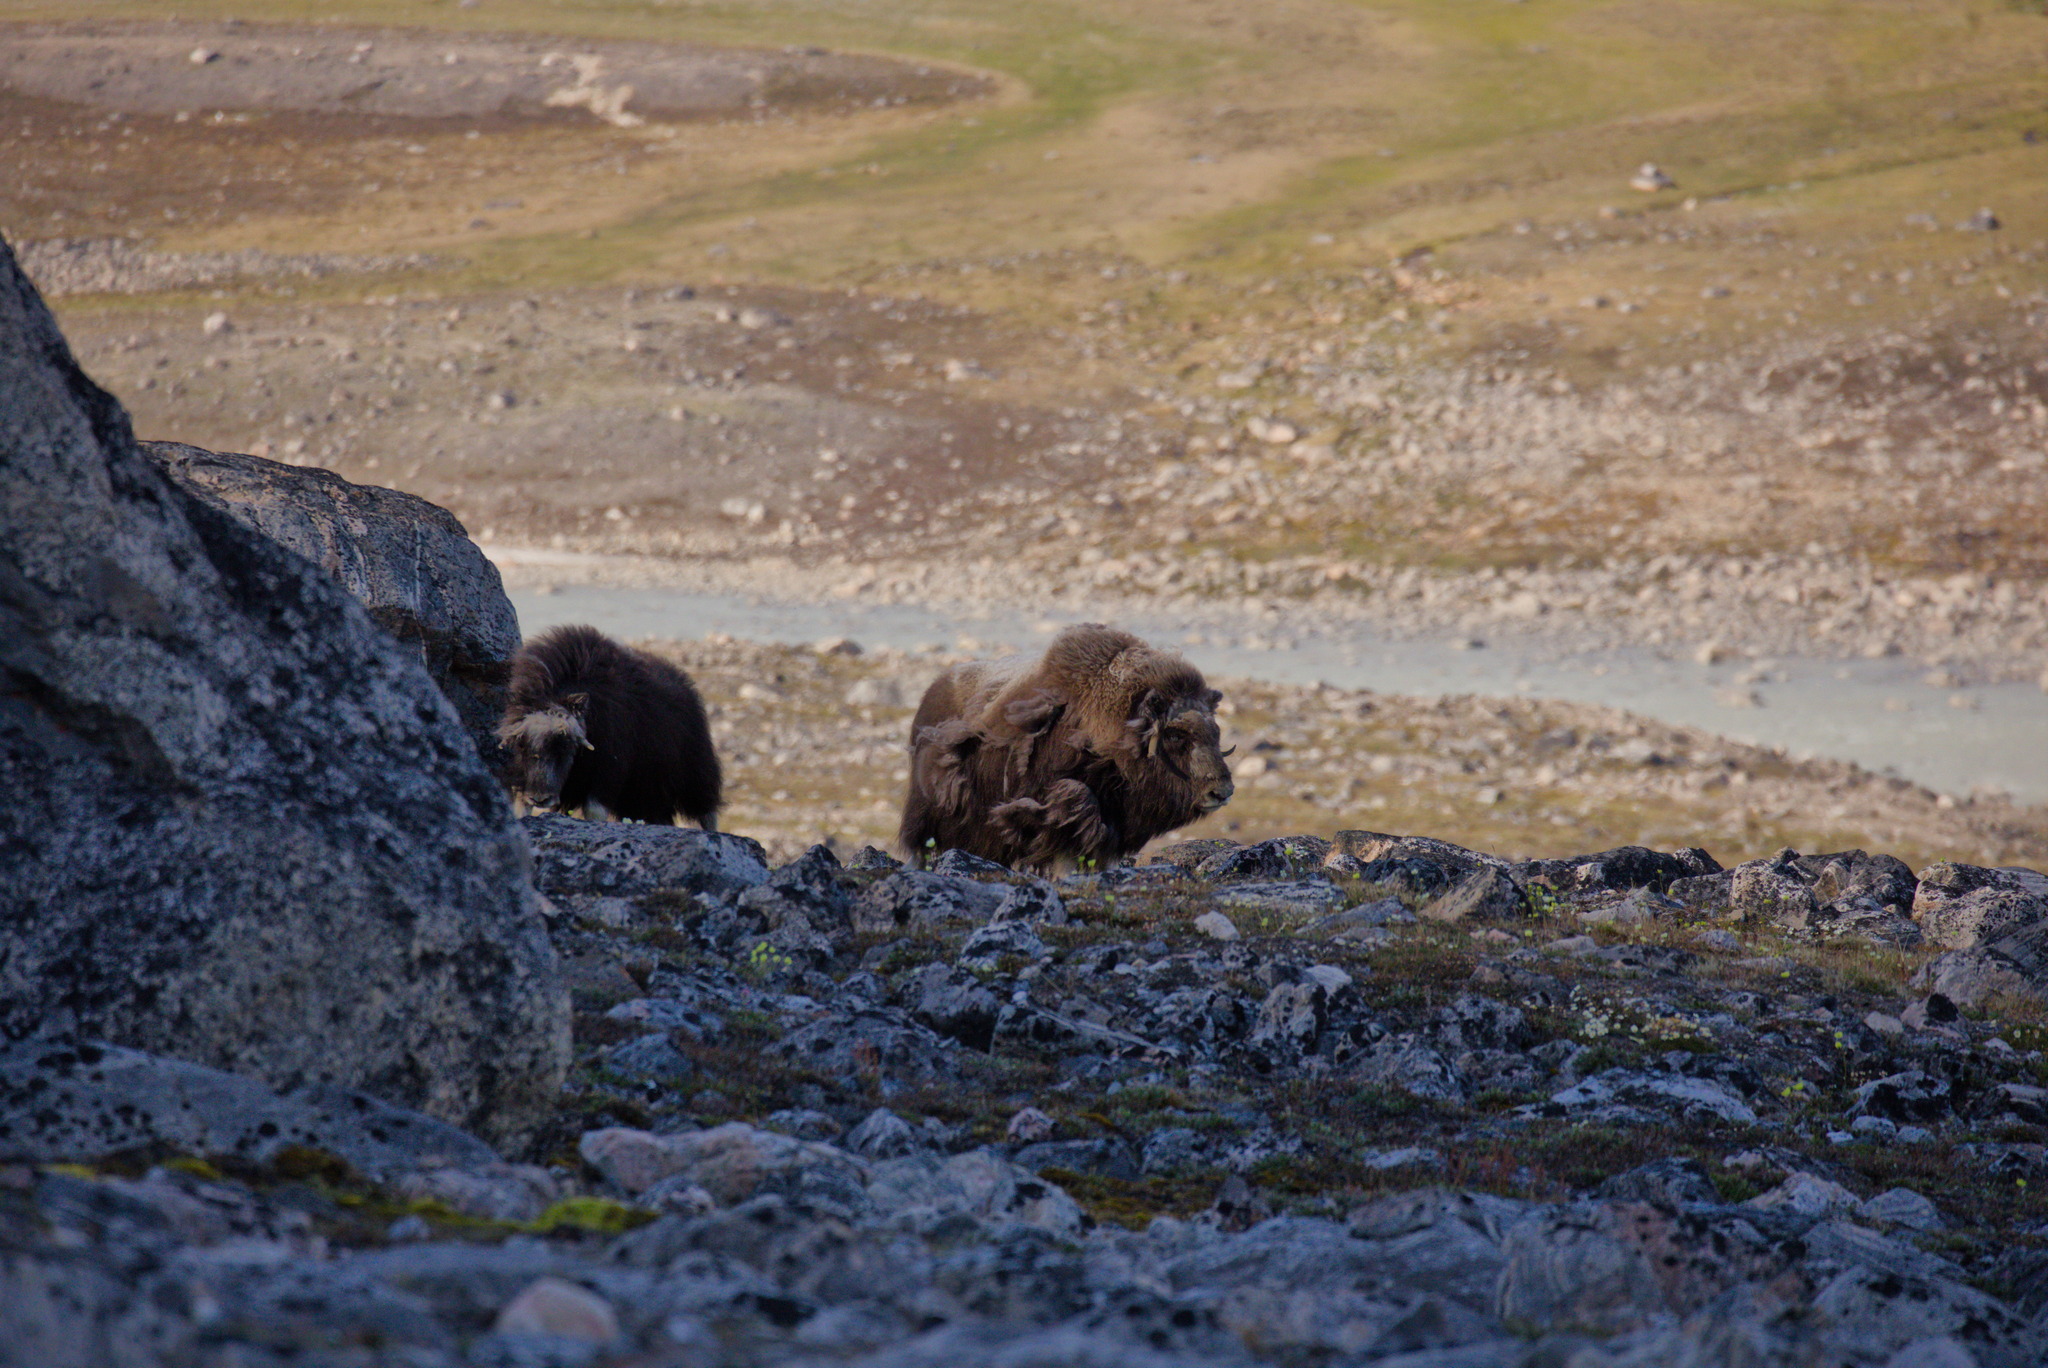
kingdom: Animalia
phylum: Chordata
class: Mammalia
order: Artiodactyla
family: Bovidae
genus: Ovibos
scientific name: Ovibos moschatus
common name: Muskox
